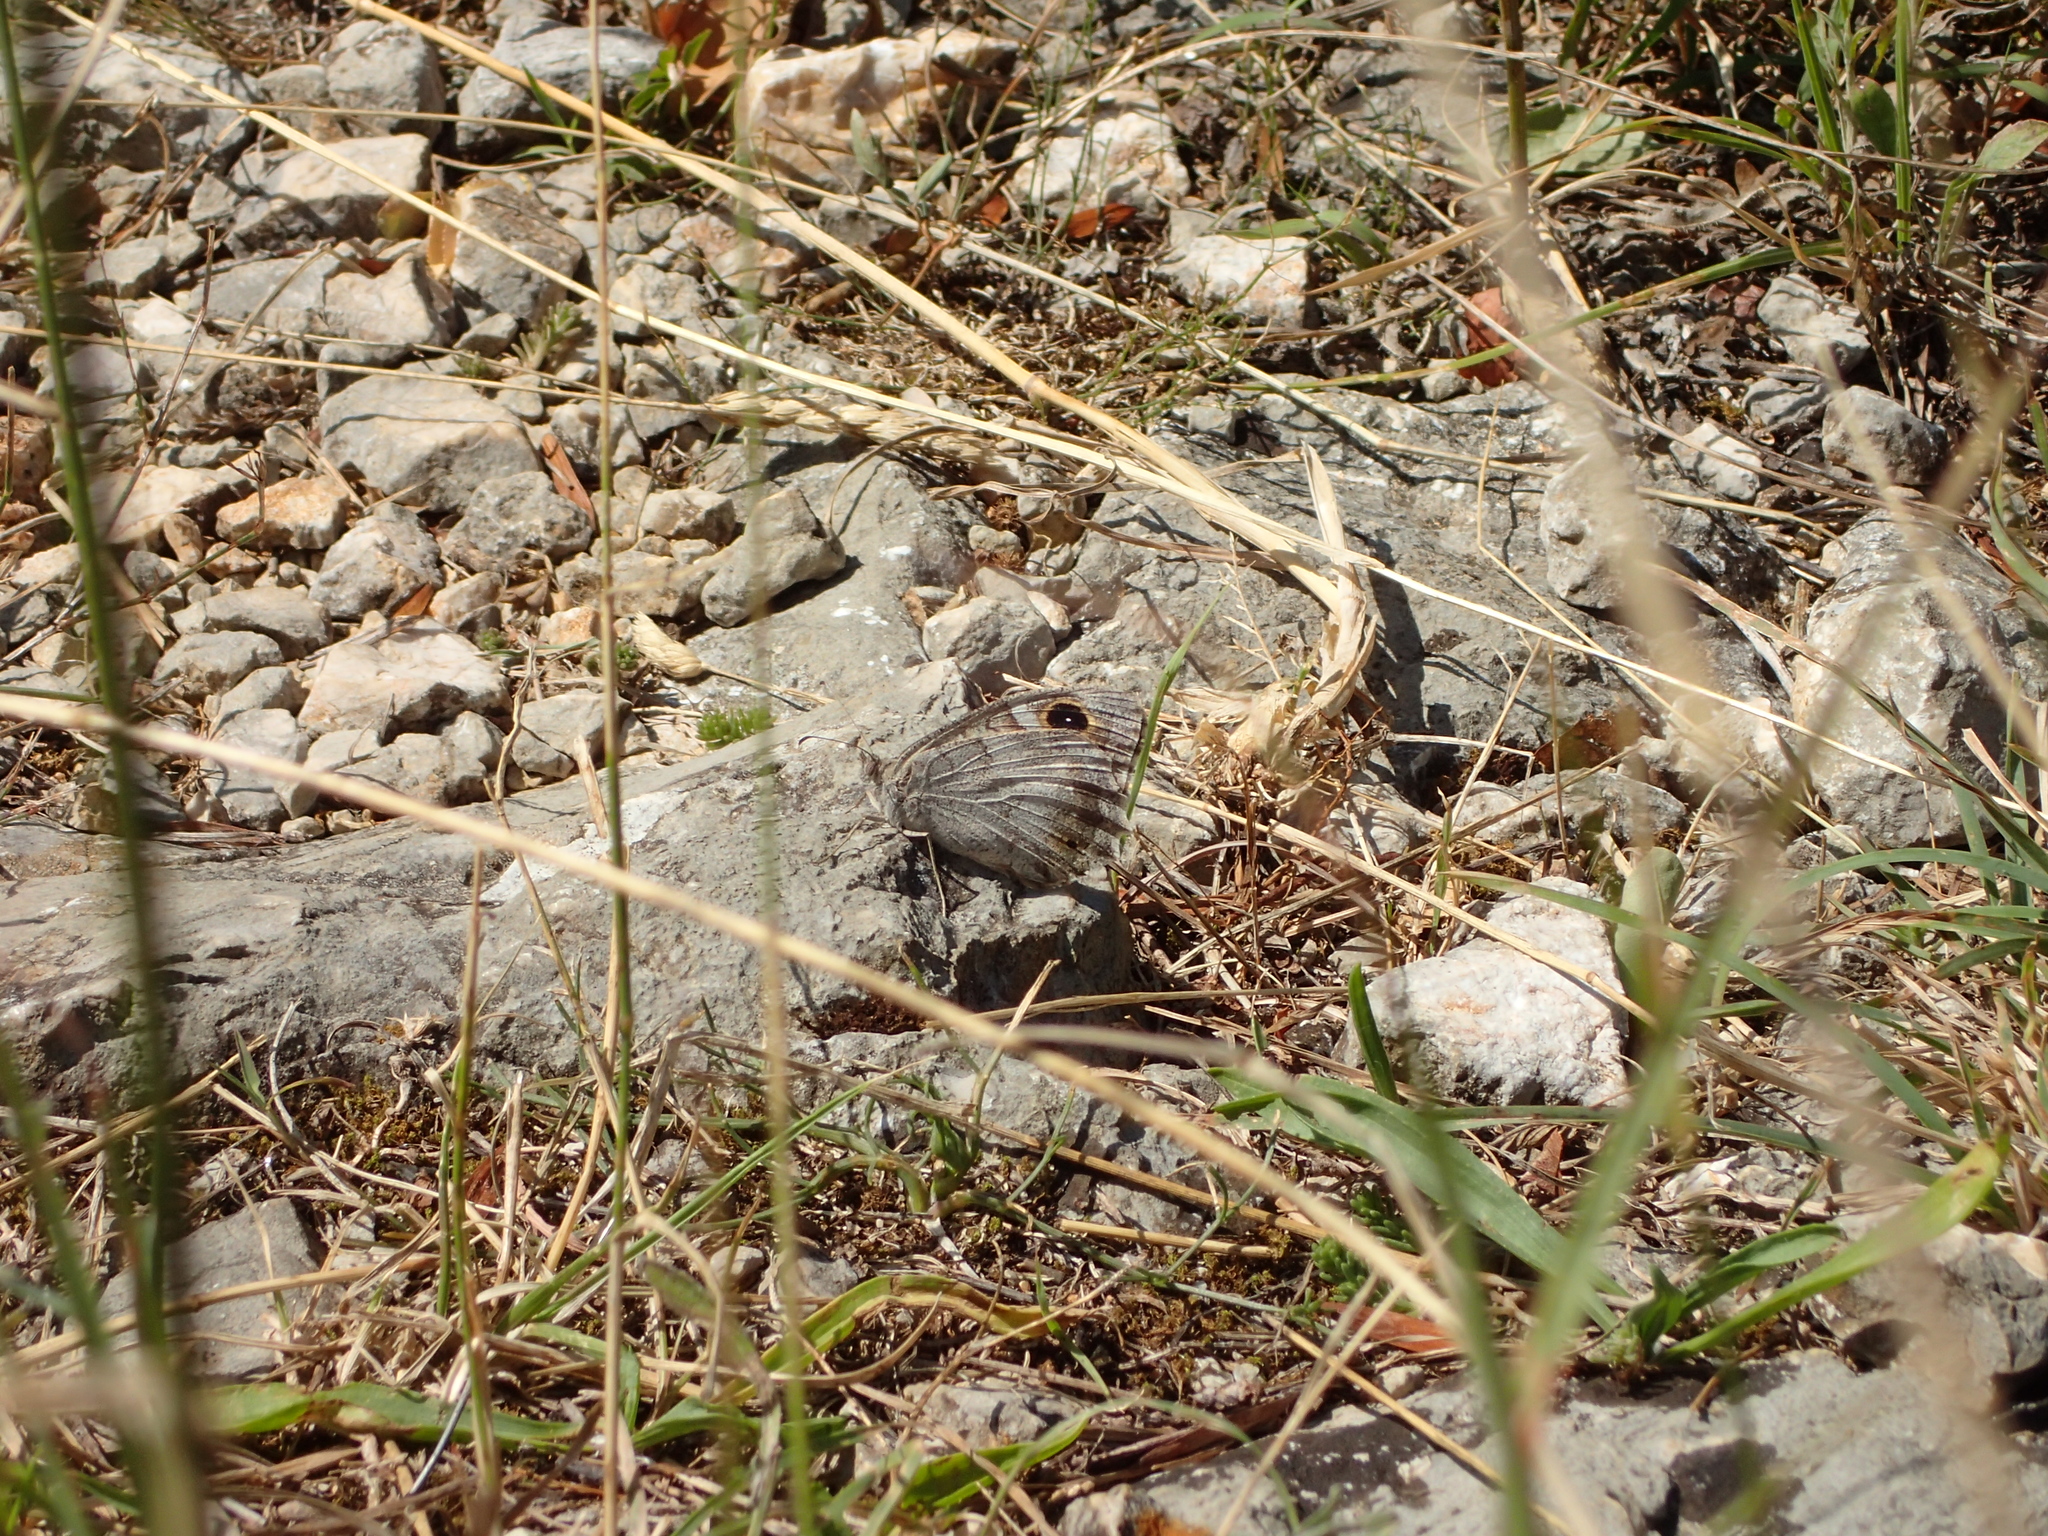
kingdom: Animalia
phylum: Arthropoda
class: Insecta
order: Lepidoptera
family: Nymphalidae
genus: Hipparchia
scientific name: Hipparchia statilinus
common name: Tree grayling
